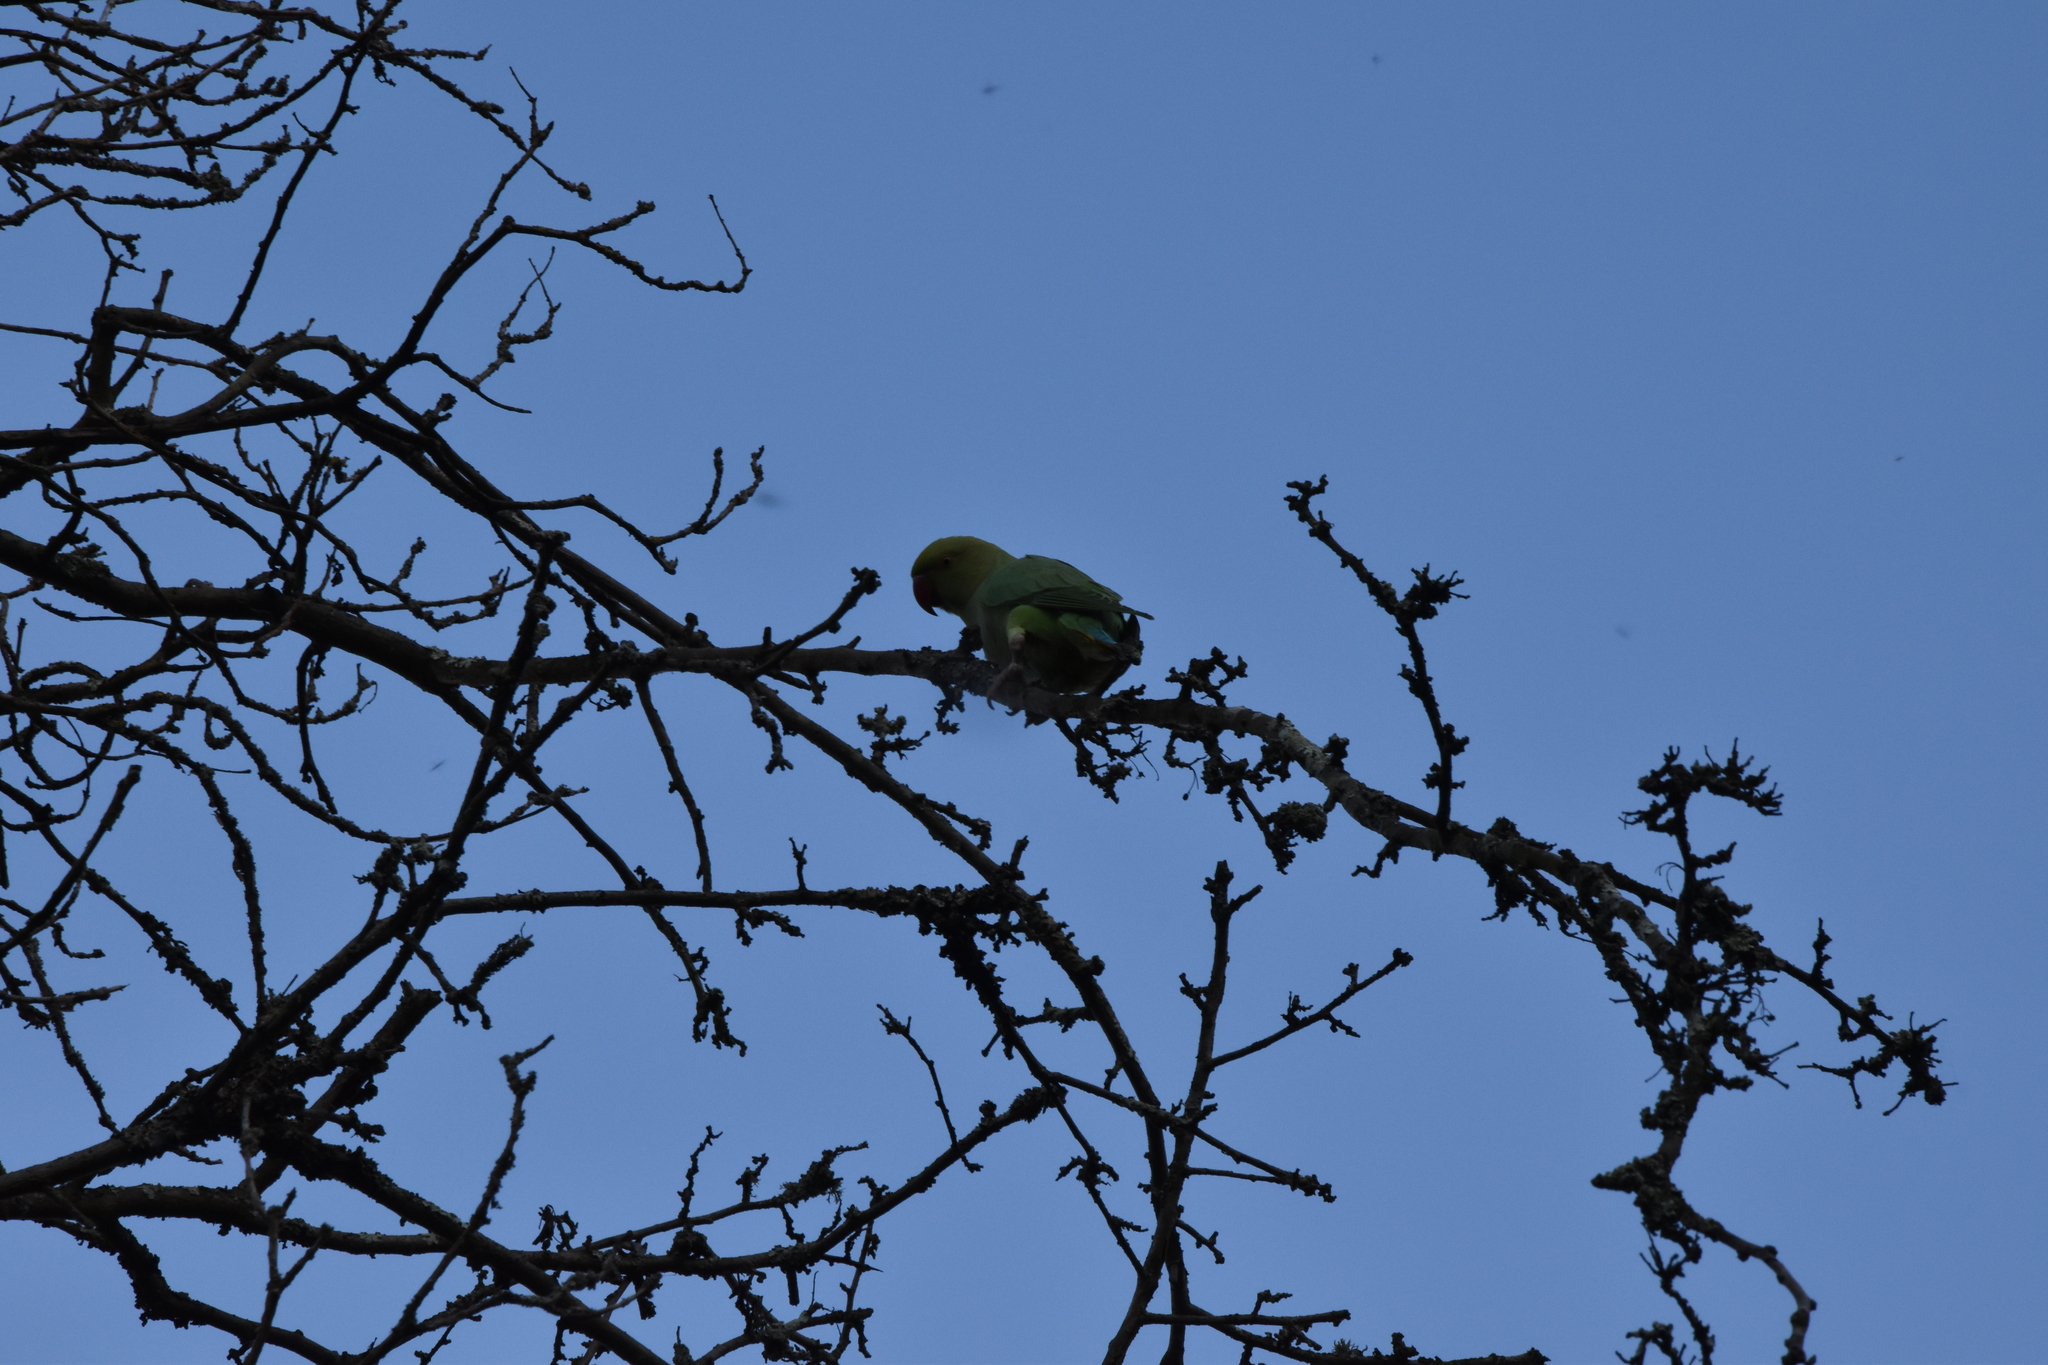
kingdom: Animalia
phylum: Chordata
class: Aves
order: Psittaciformes
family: Psittacidae
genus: Psittacula
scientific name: Psittacula krameri
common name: Rose-ringed parakeet
